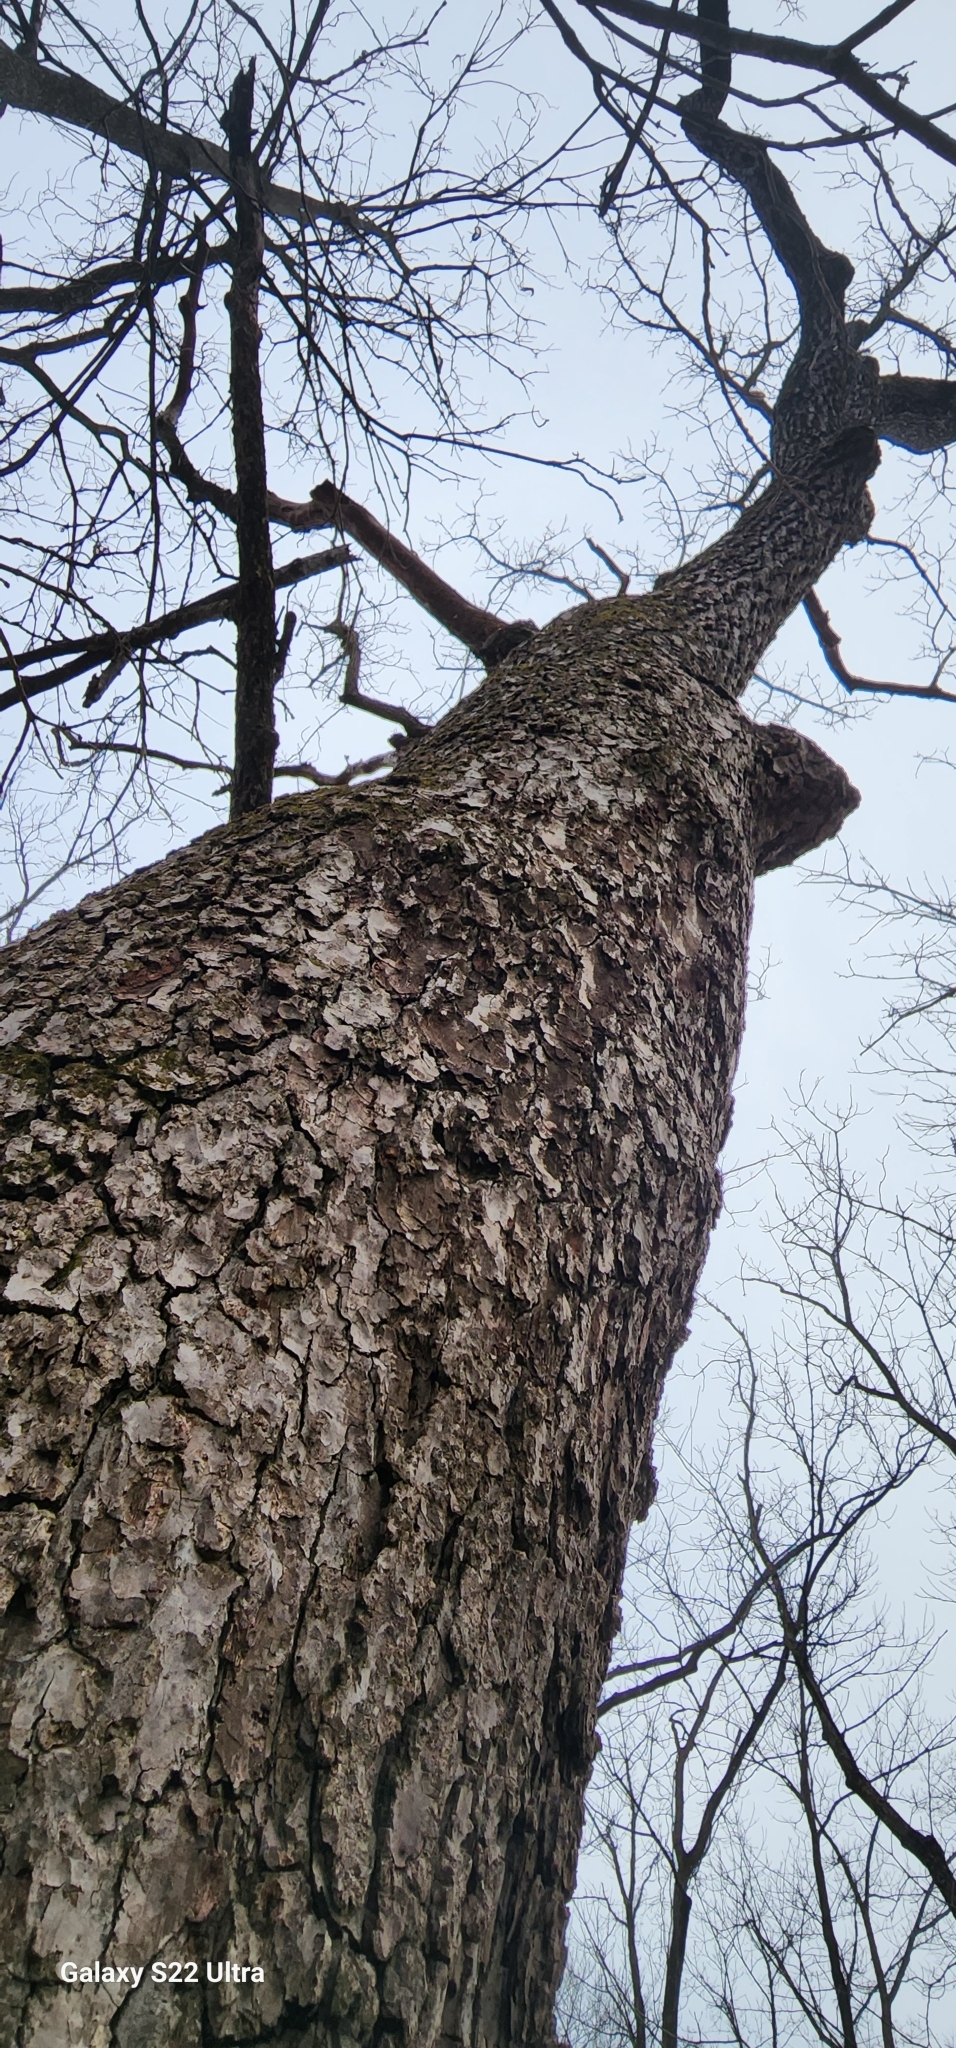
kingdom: Plantae
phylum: Tracheophyta
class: Magnoliopsida
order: Rosales
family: Rosaceae
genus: Prunus
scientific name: Prunus serotina
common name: Black cherry
